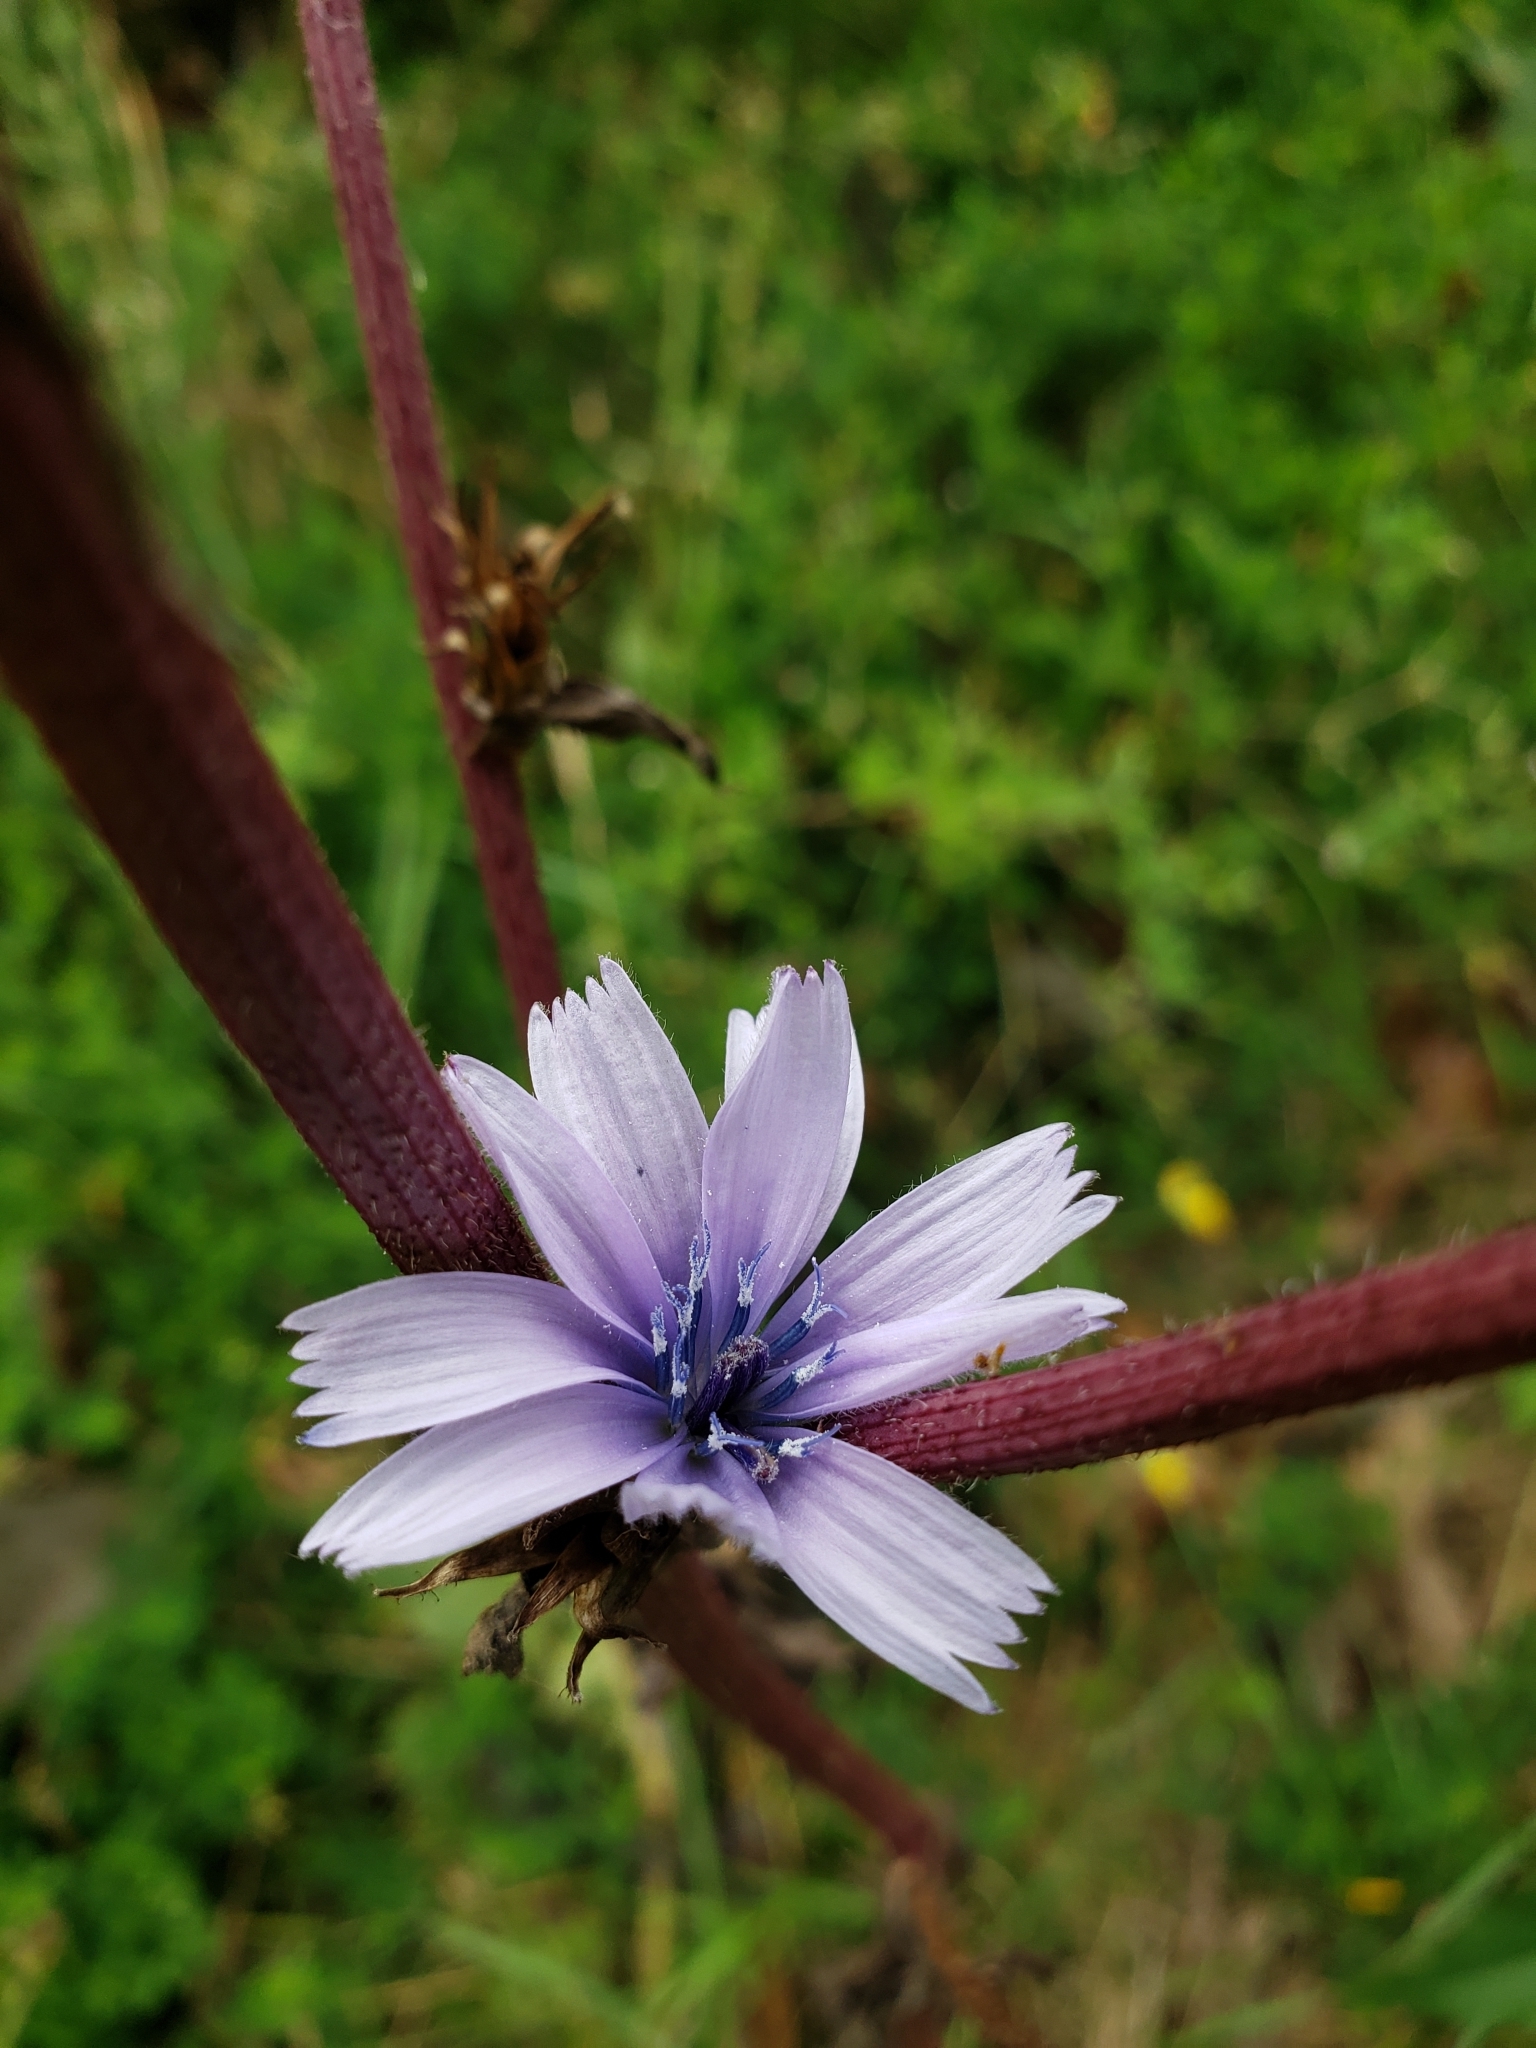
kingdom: Plantae
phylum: Tracheophyta
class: Magnoliopsida
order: Asterales
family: Asteraceae
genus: Cichorium
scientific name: Cichorium intybus
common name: Chicory
